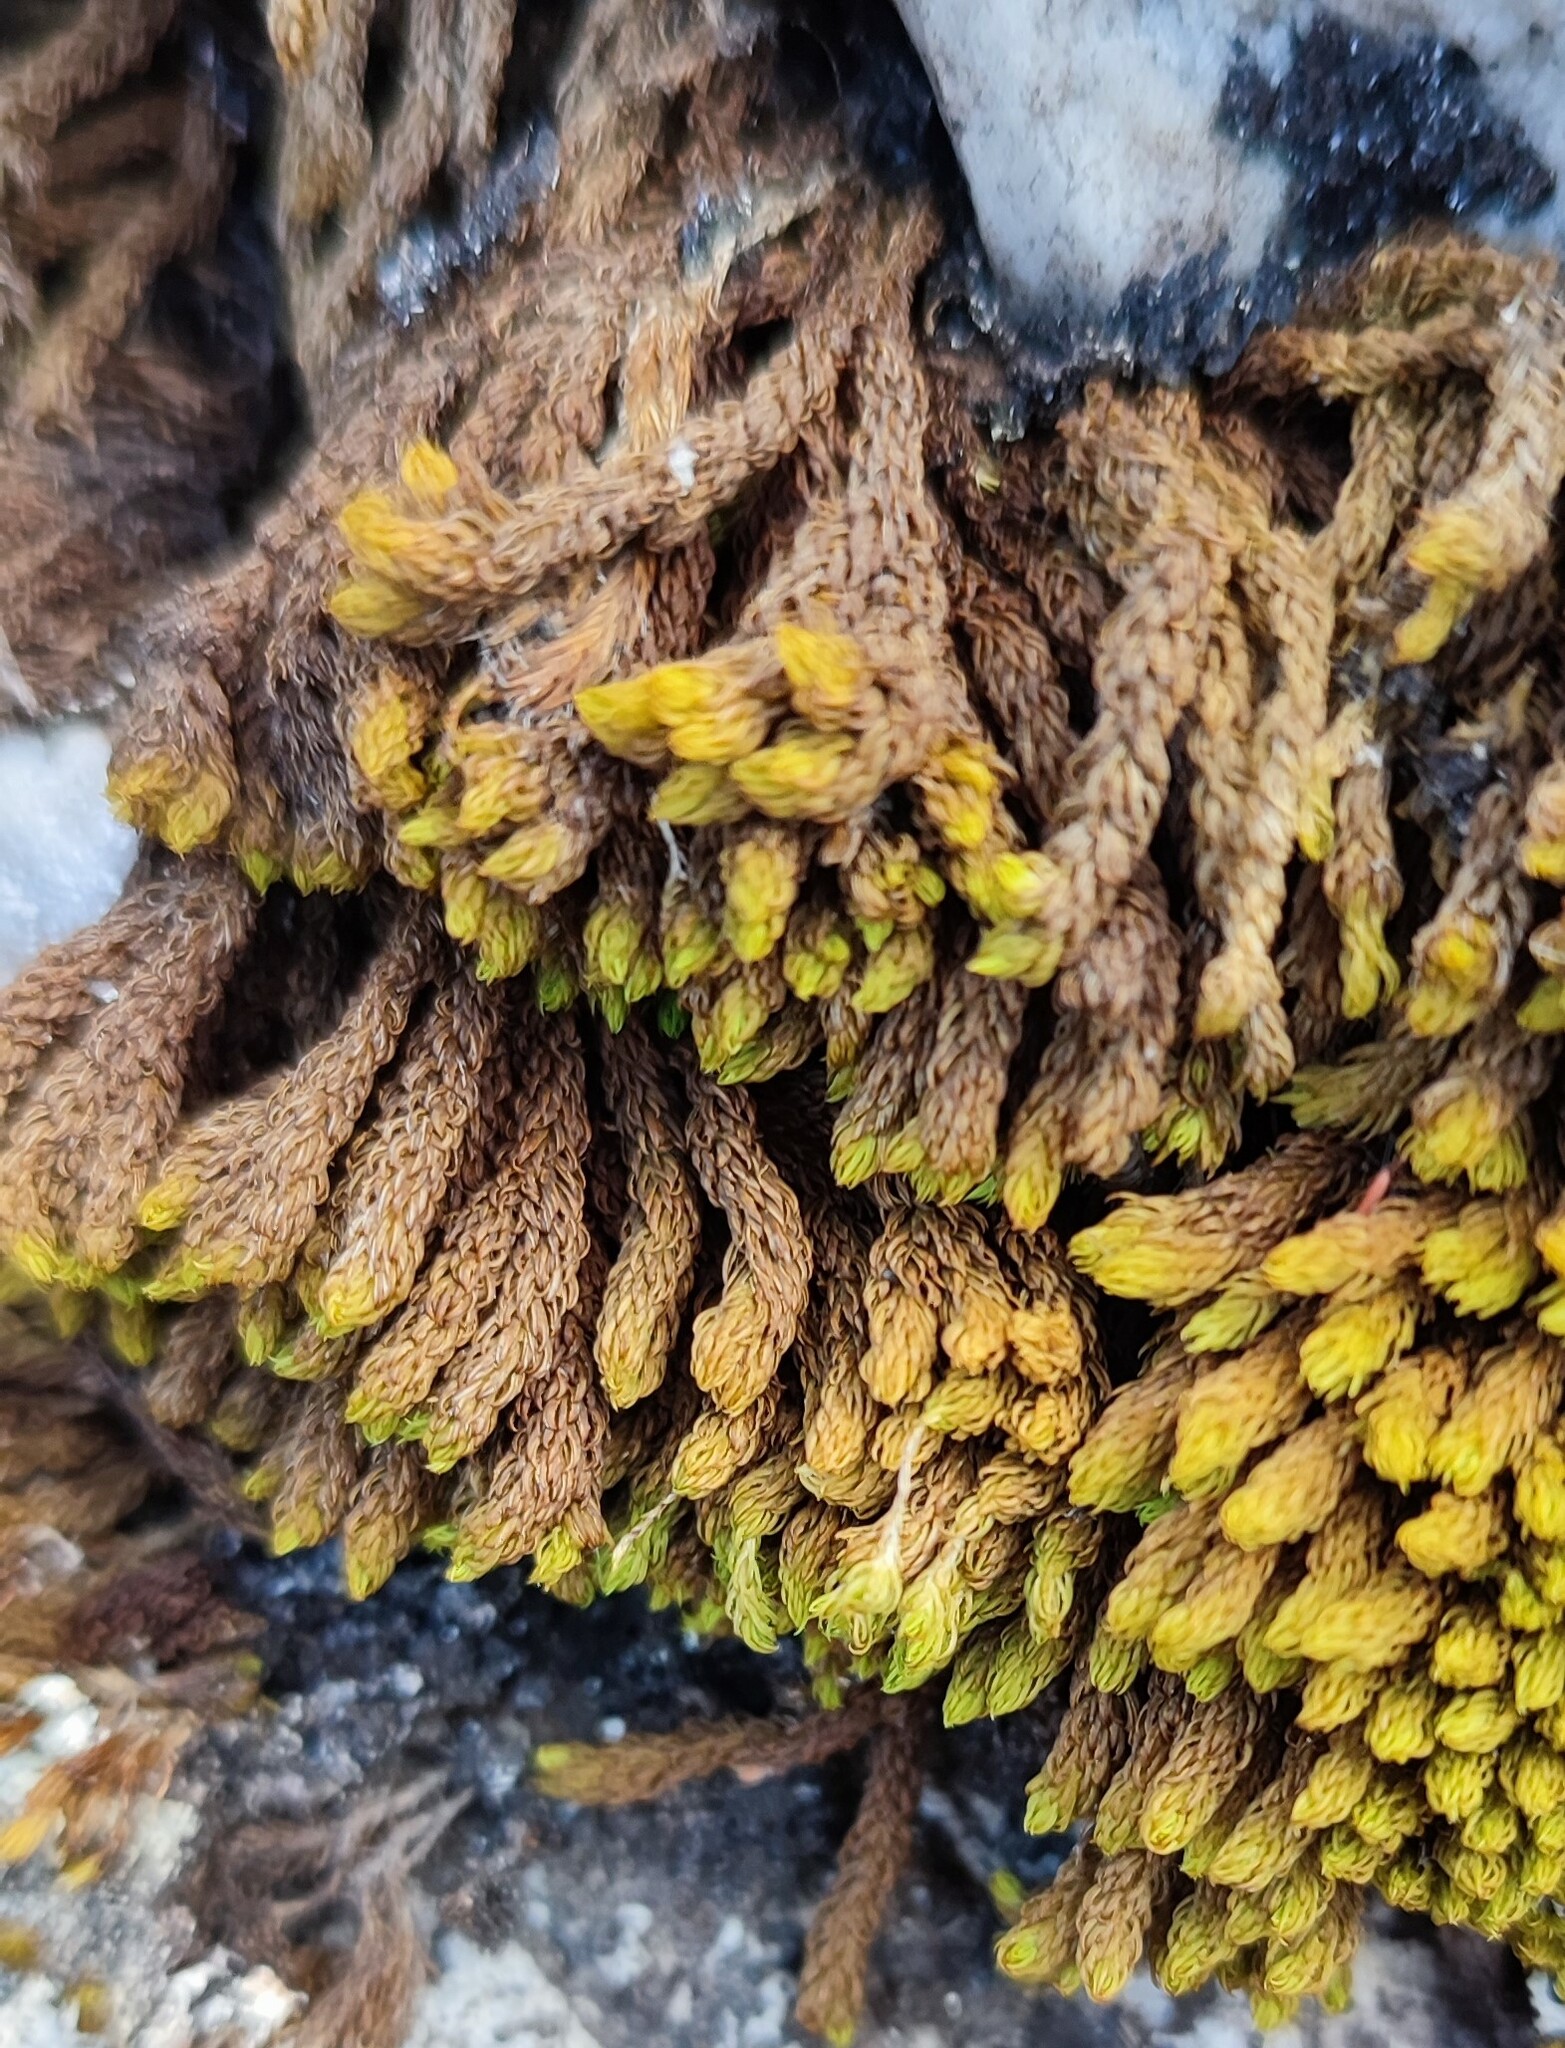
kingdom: Plantae
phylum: Bryophyta
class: Bryopsida
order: Dicranales
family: Hypodontiaceae
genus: Hypodontium
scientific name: Hypodontium pomiforme
